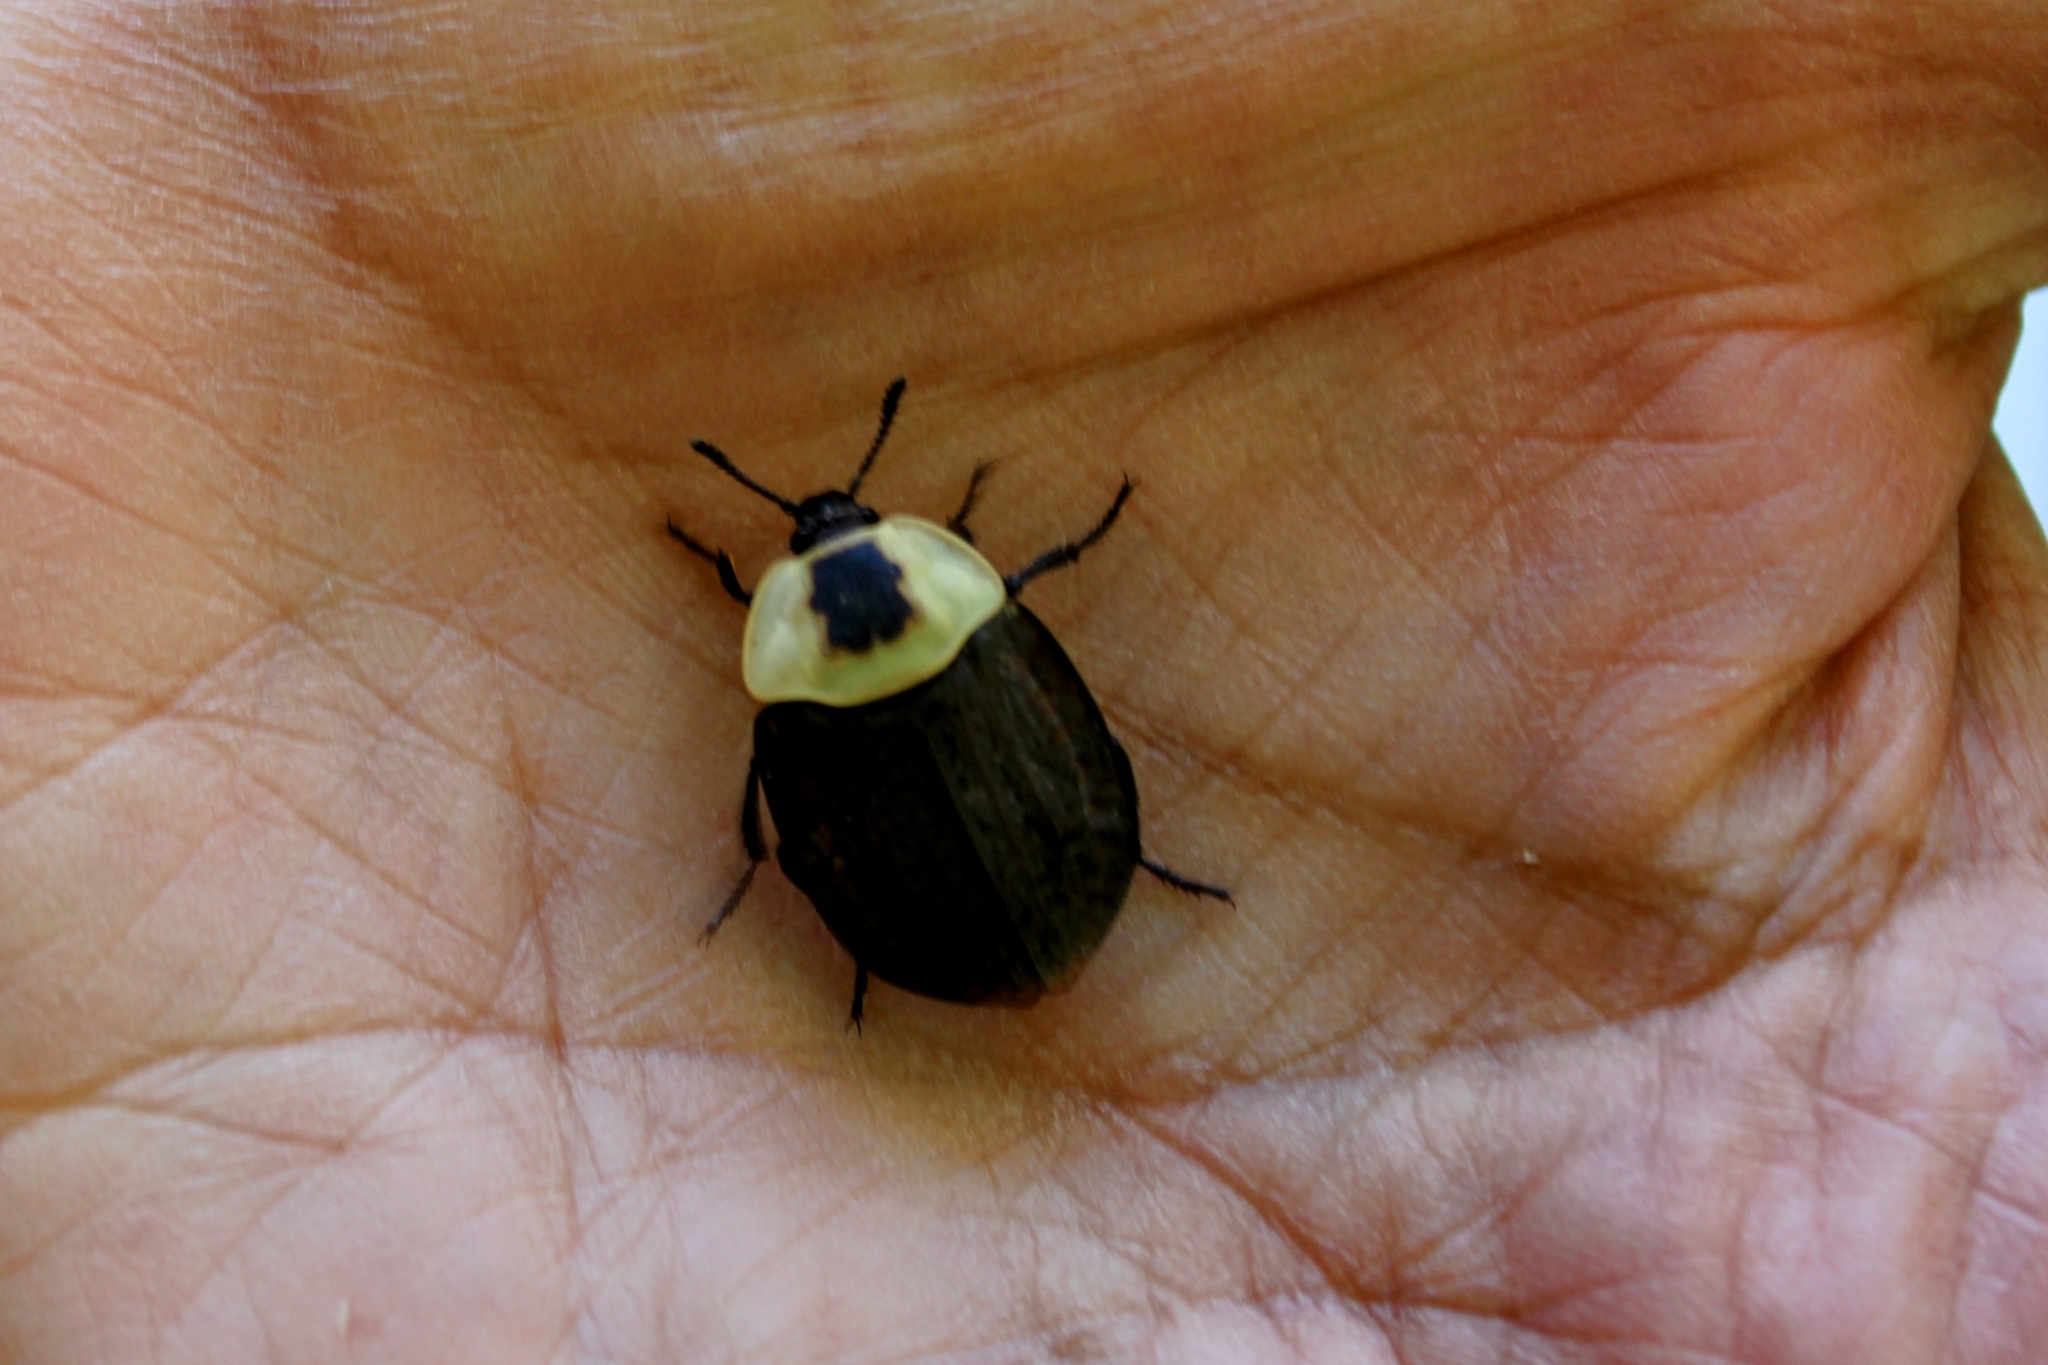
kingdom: Animalia
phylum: Arthropoda
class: Insecta
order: Coleoptera
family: Staphylinidae
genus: Necrophila
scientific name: Necrophila americana
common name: American carrion beetle
